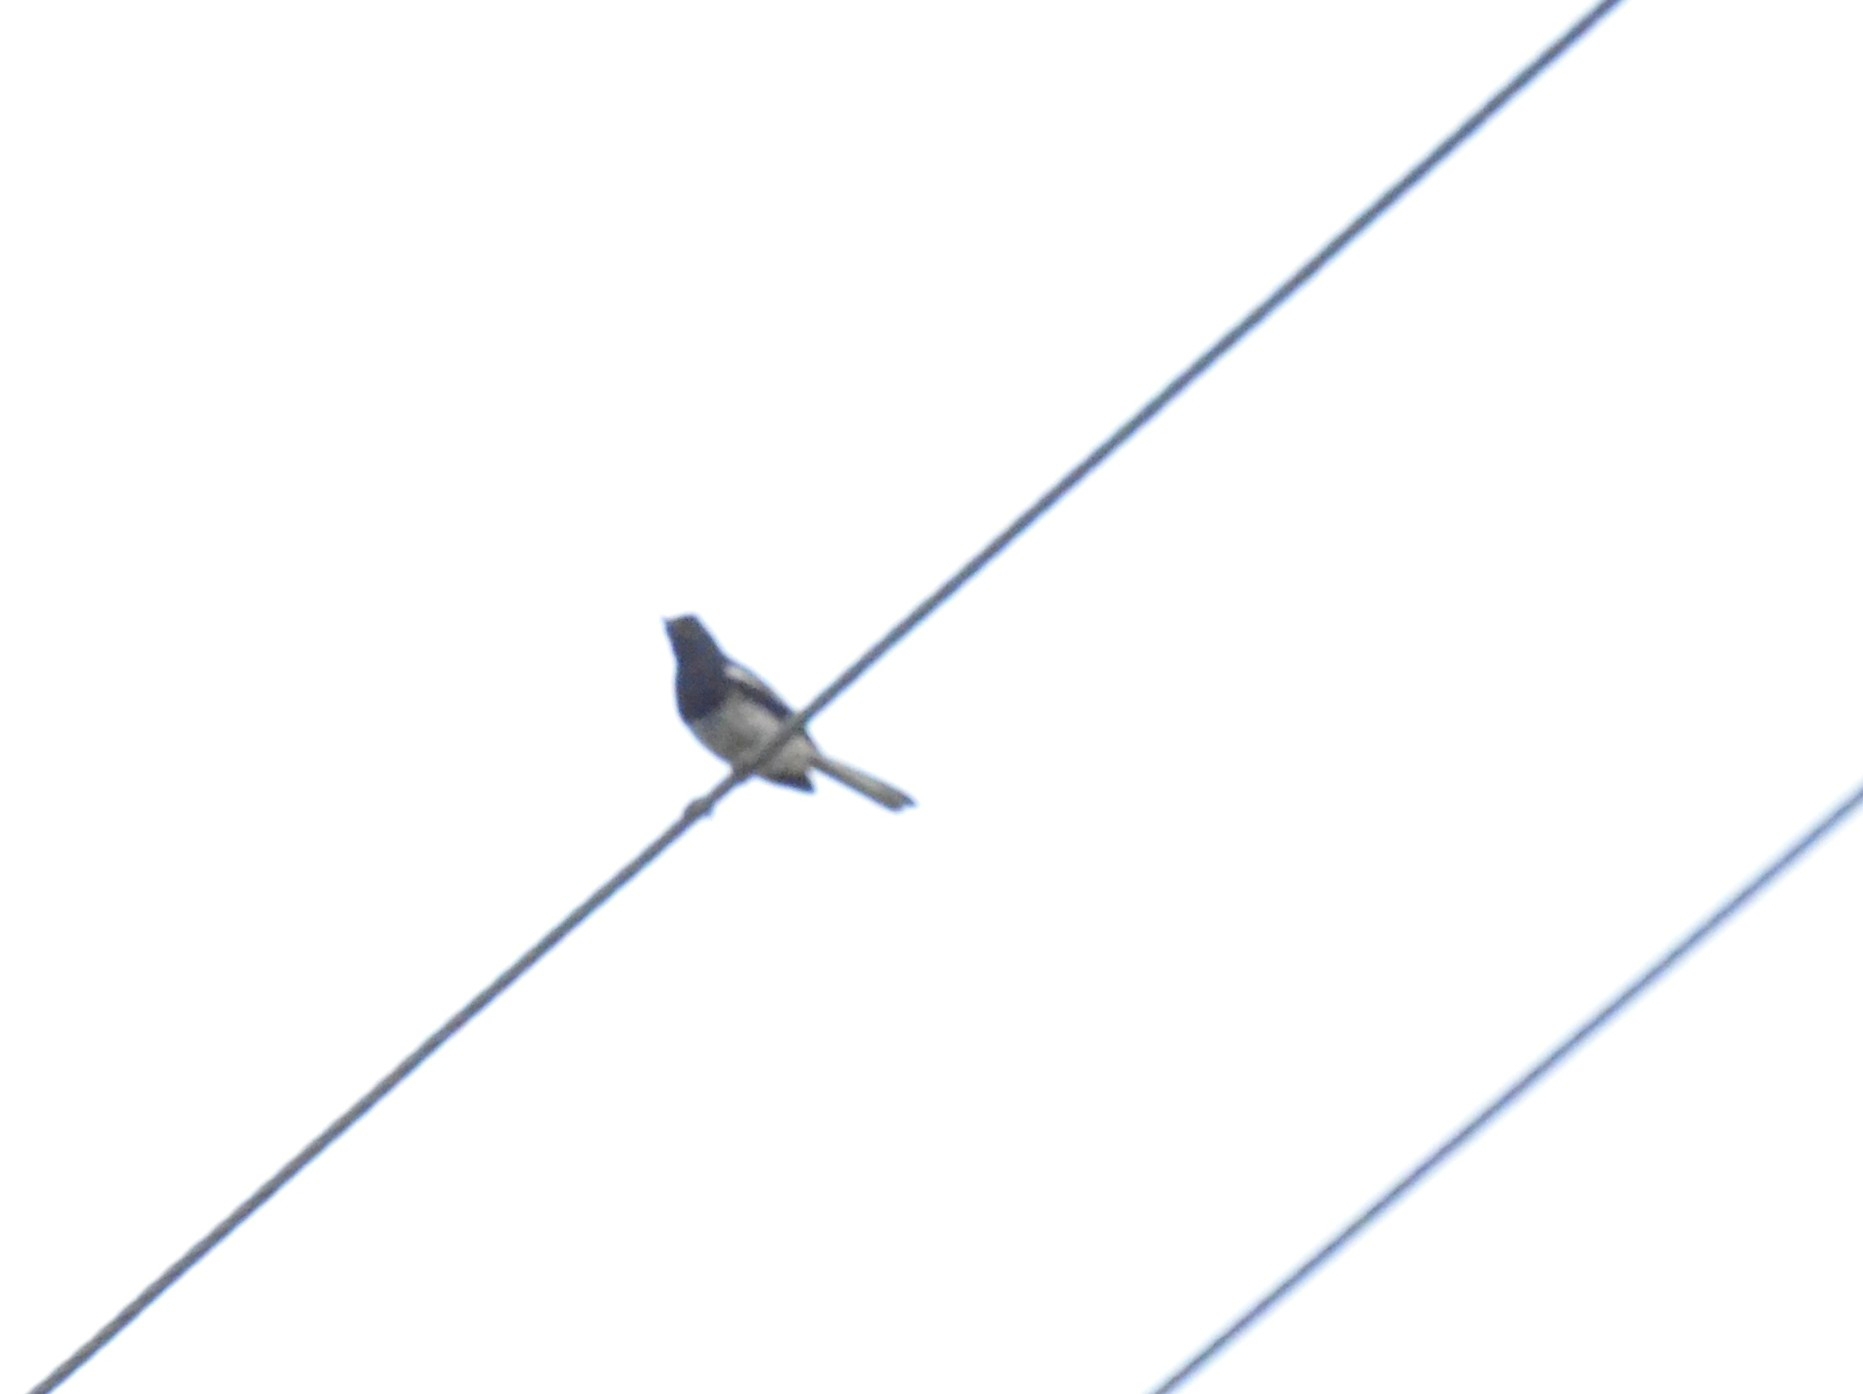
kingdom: Animalia
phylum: Chordata
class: Aves
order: Passeriformes
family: Muscicapidae
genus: Copsychus
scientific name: Copsychus saularis
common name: Oriental magpie-robin
